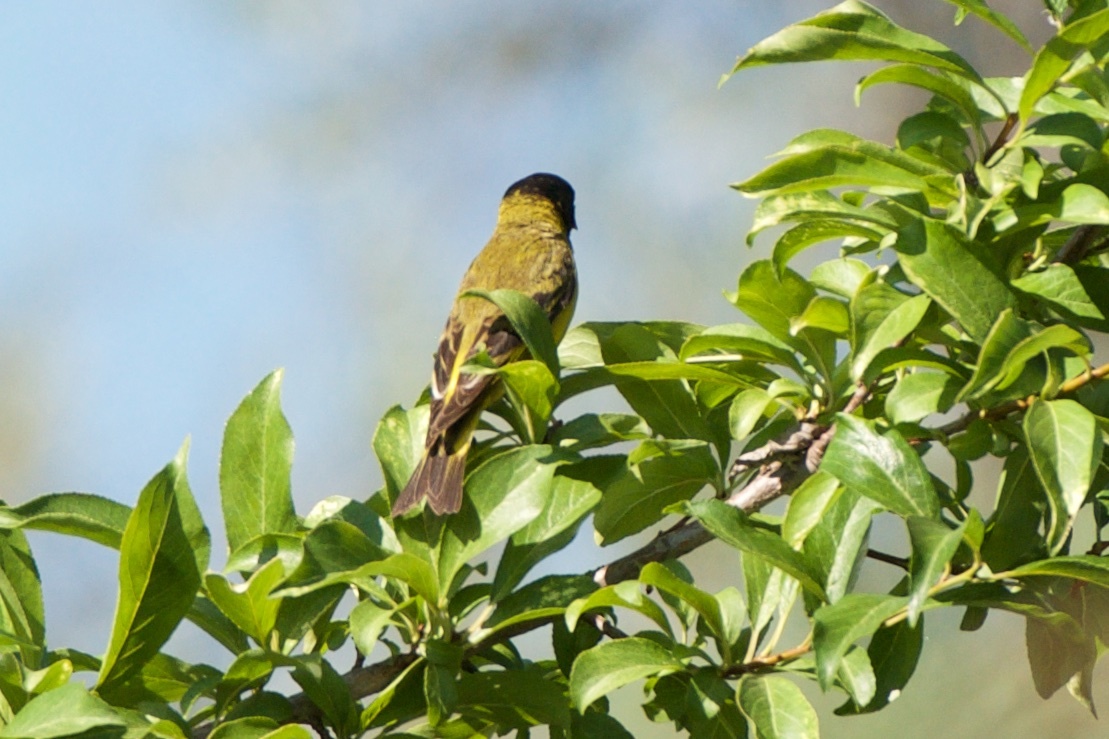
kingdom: Animalia
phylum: Chordata
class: Aves
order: Passeriformes
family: Fringillidae
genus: Spinus
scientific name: Spinus magellanicus
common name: Hooded siskin
